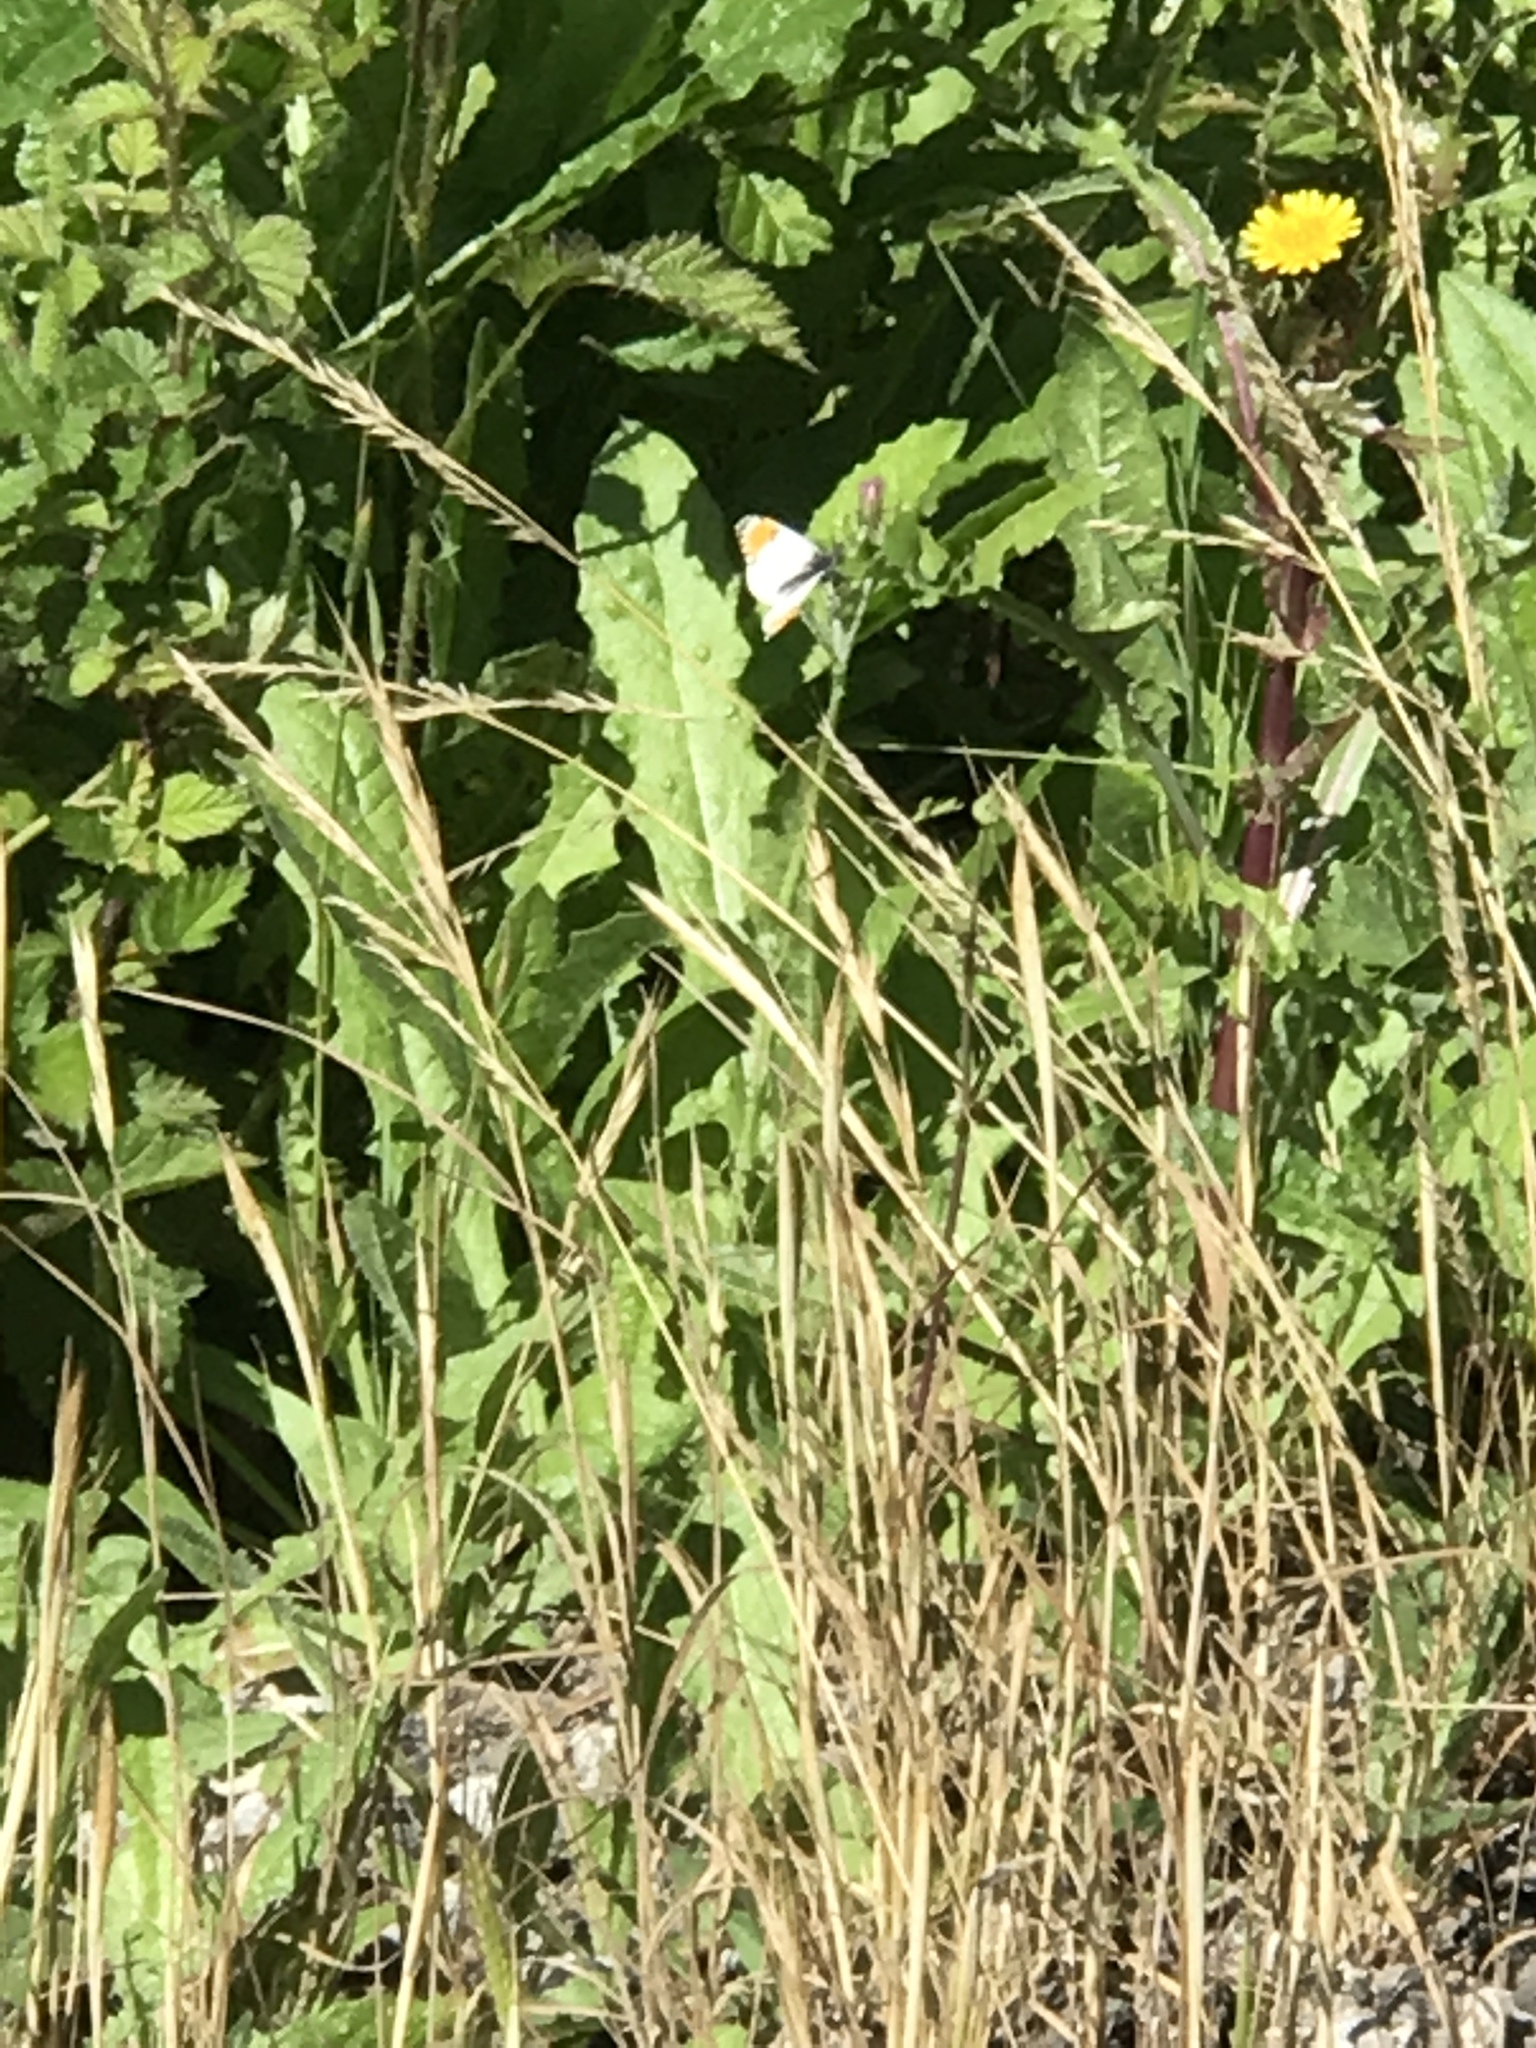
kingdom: Animalia
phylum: Arthropoda
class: Insecta
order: Lepidoptera
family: Pieridae
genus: Anthocharis
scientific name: Anthocharis sara
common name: Sara's orangetip
